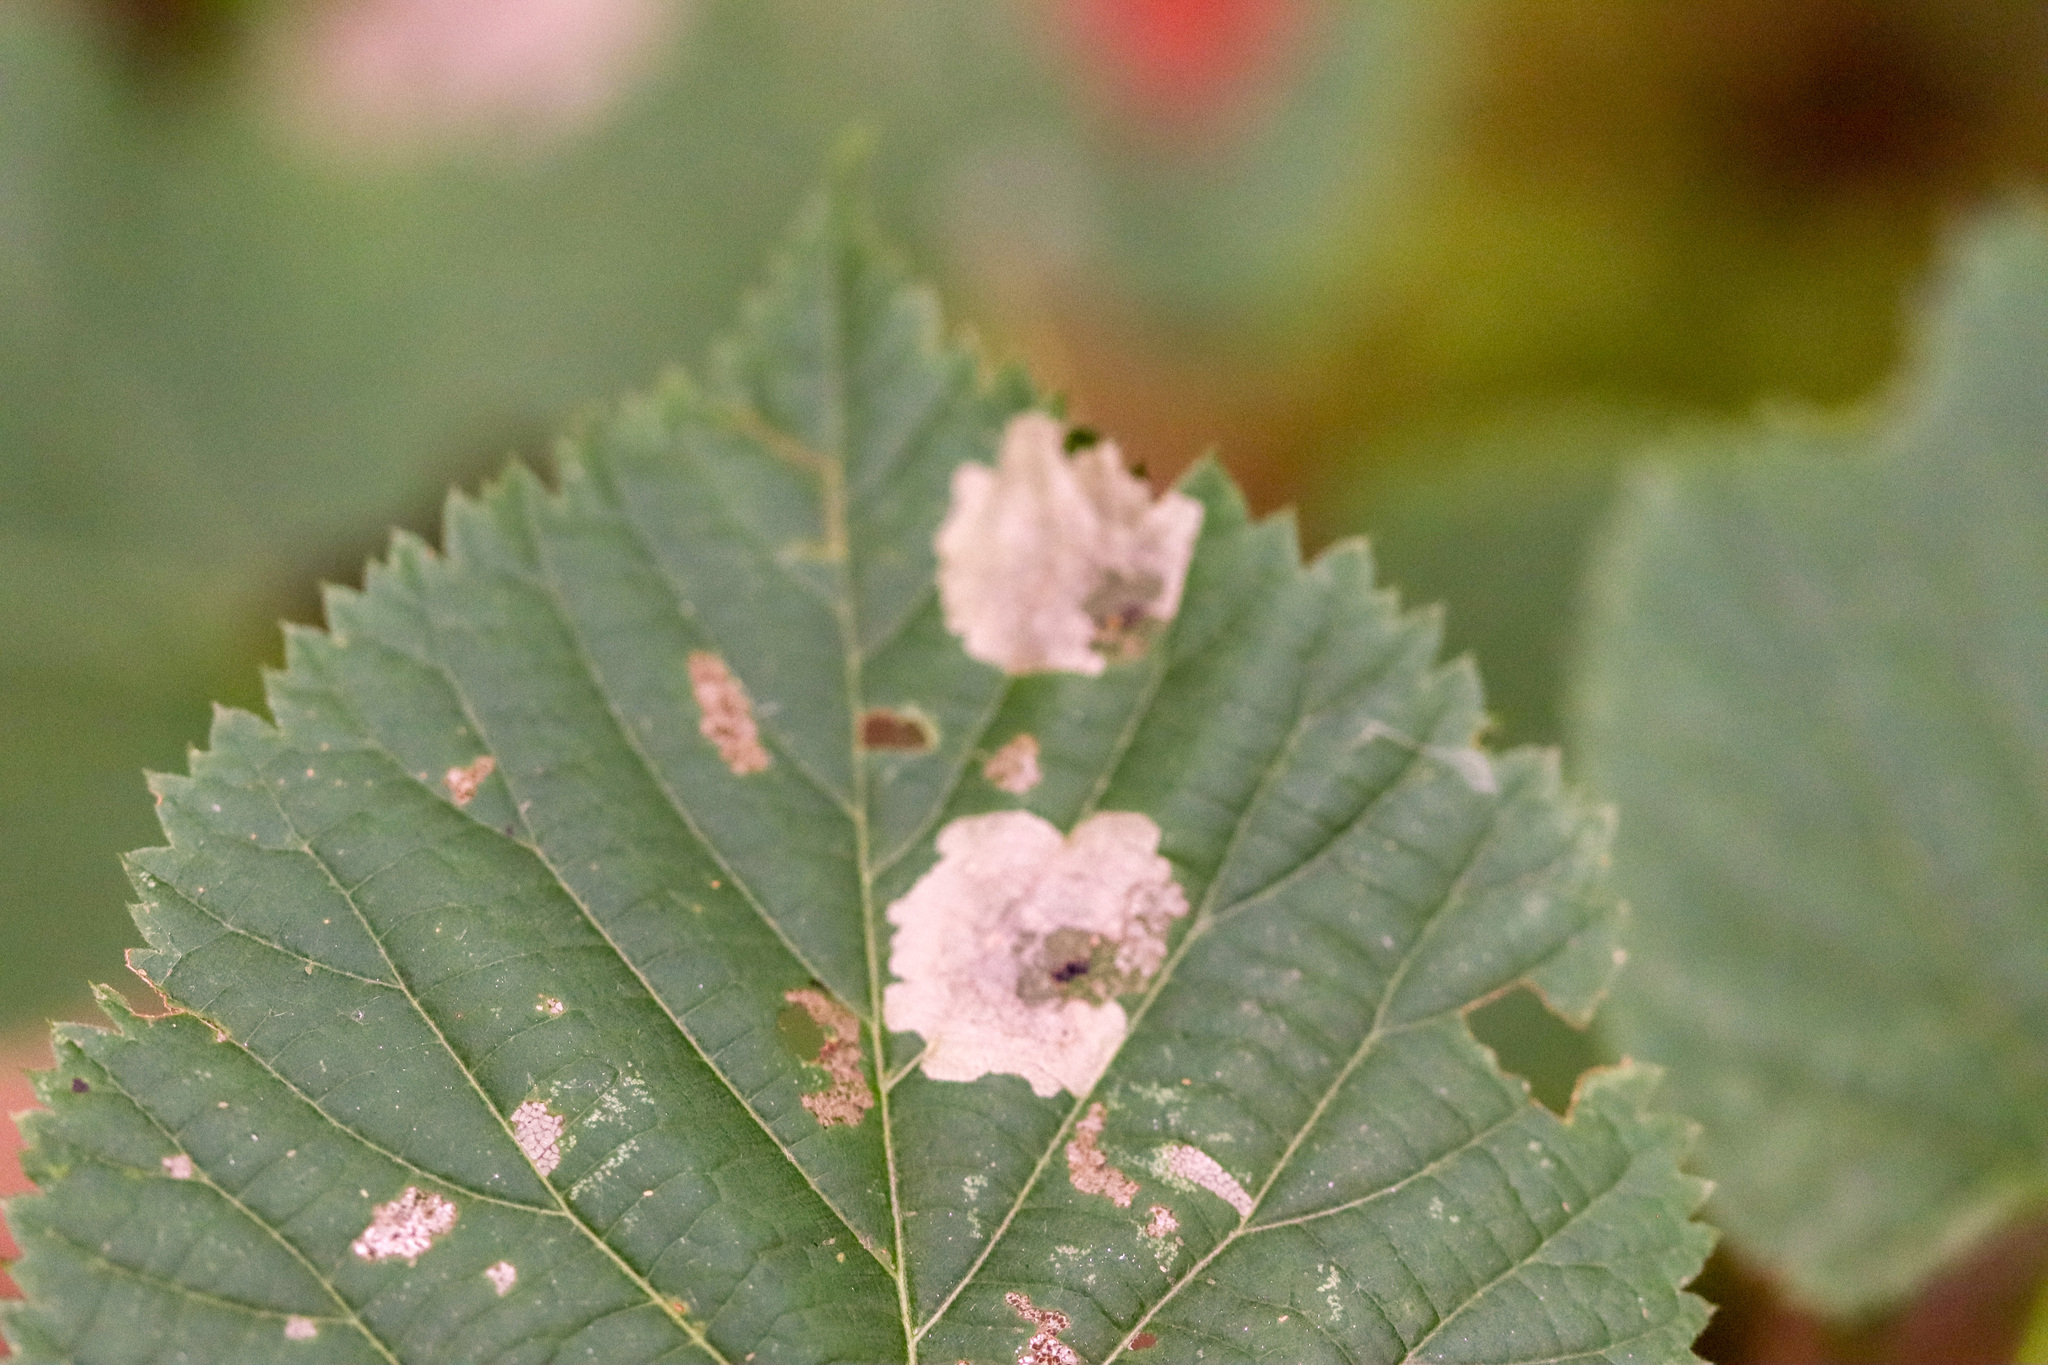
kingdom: Animalia
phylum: Arthropoda
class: Insecta
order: Coleoptera
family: Chrysomelidae
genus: Baliosus
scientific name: Baliosus nervosus
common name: Basswood leaf miner
